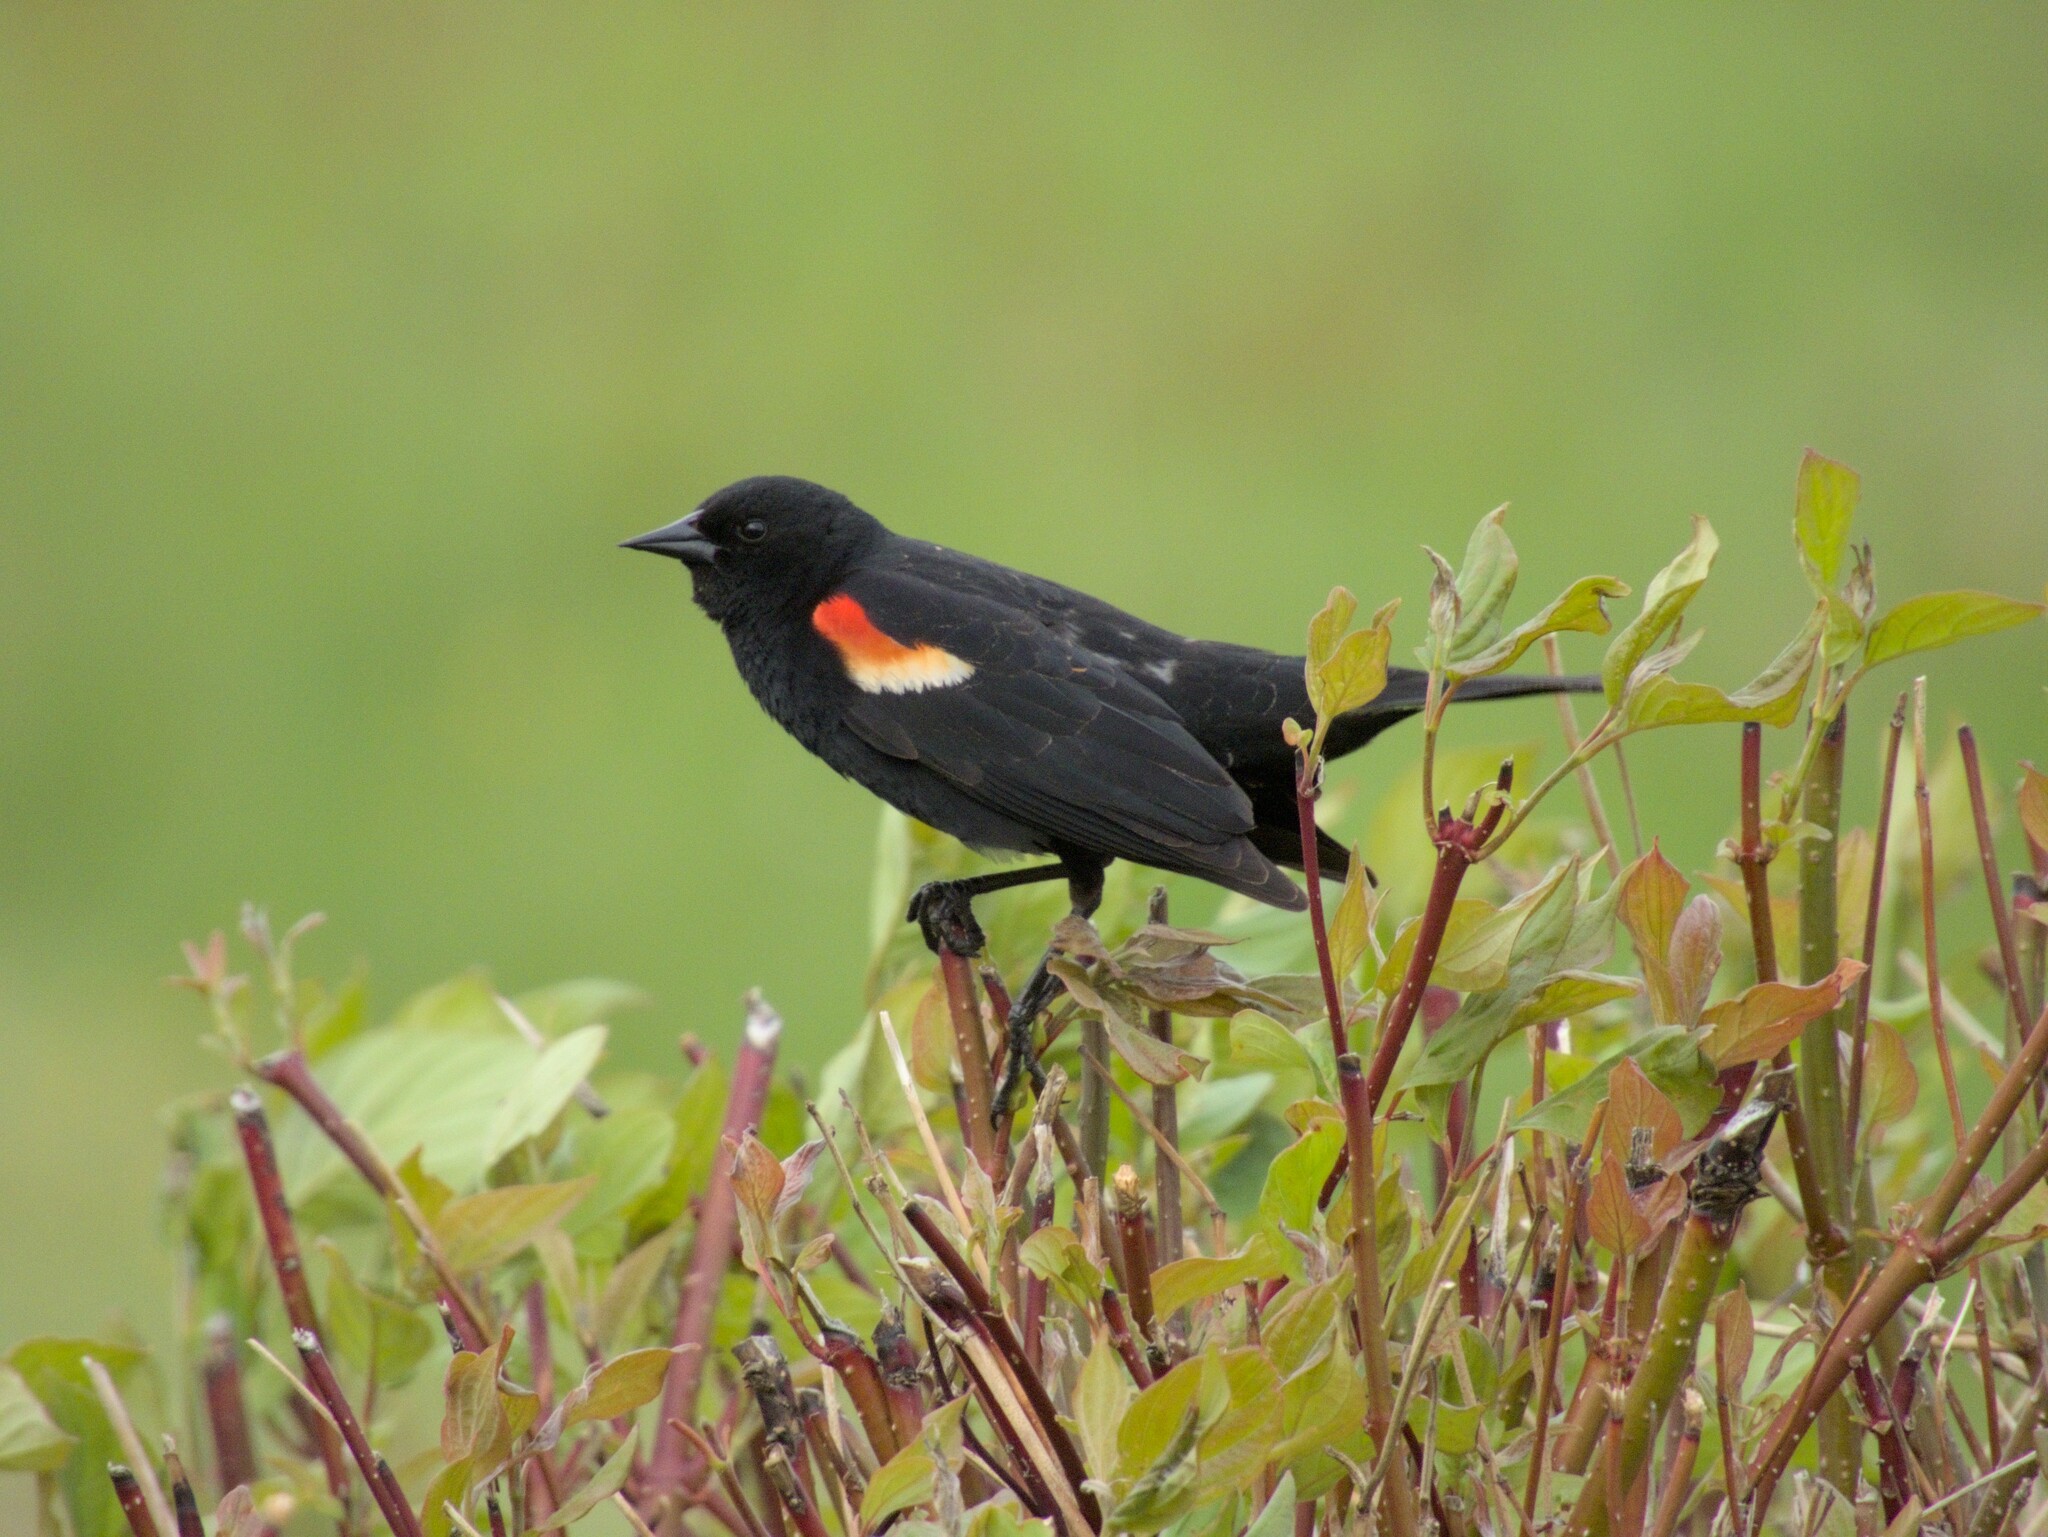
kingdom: Animalia
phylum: Chordata
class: Aves
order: Passeriformes
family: Icteridae
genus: Agelaius
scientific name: Agelaius phoeniceus
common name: Red-winged blackbird
